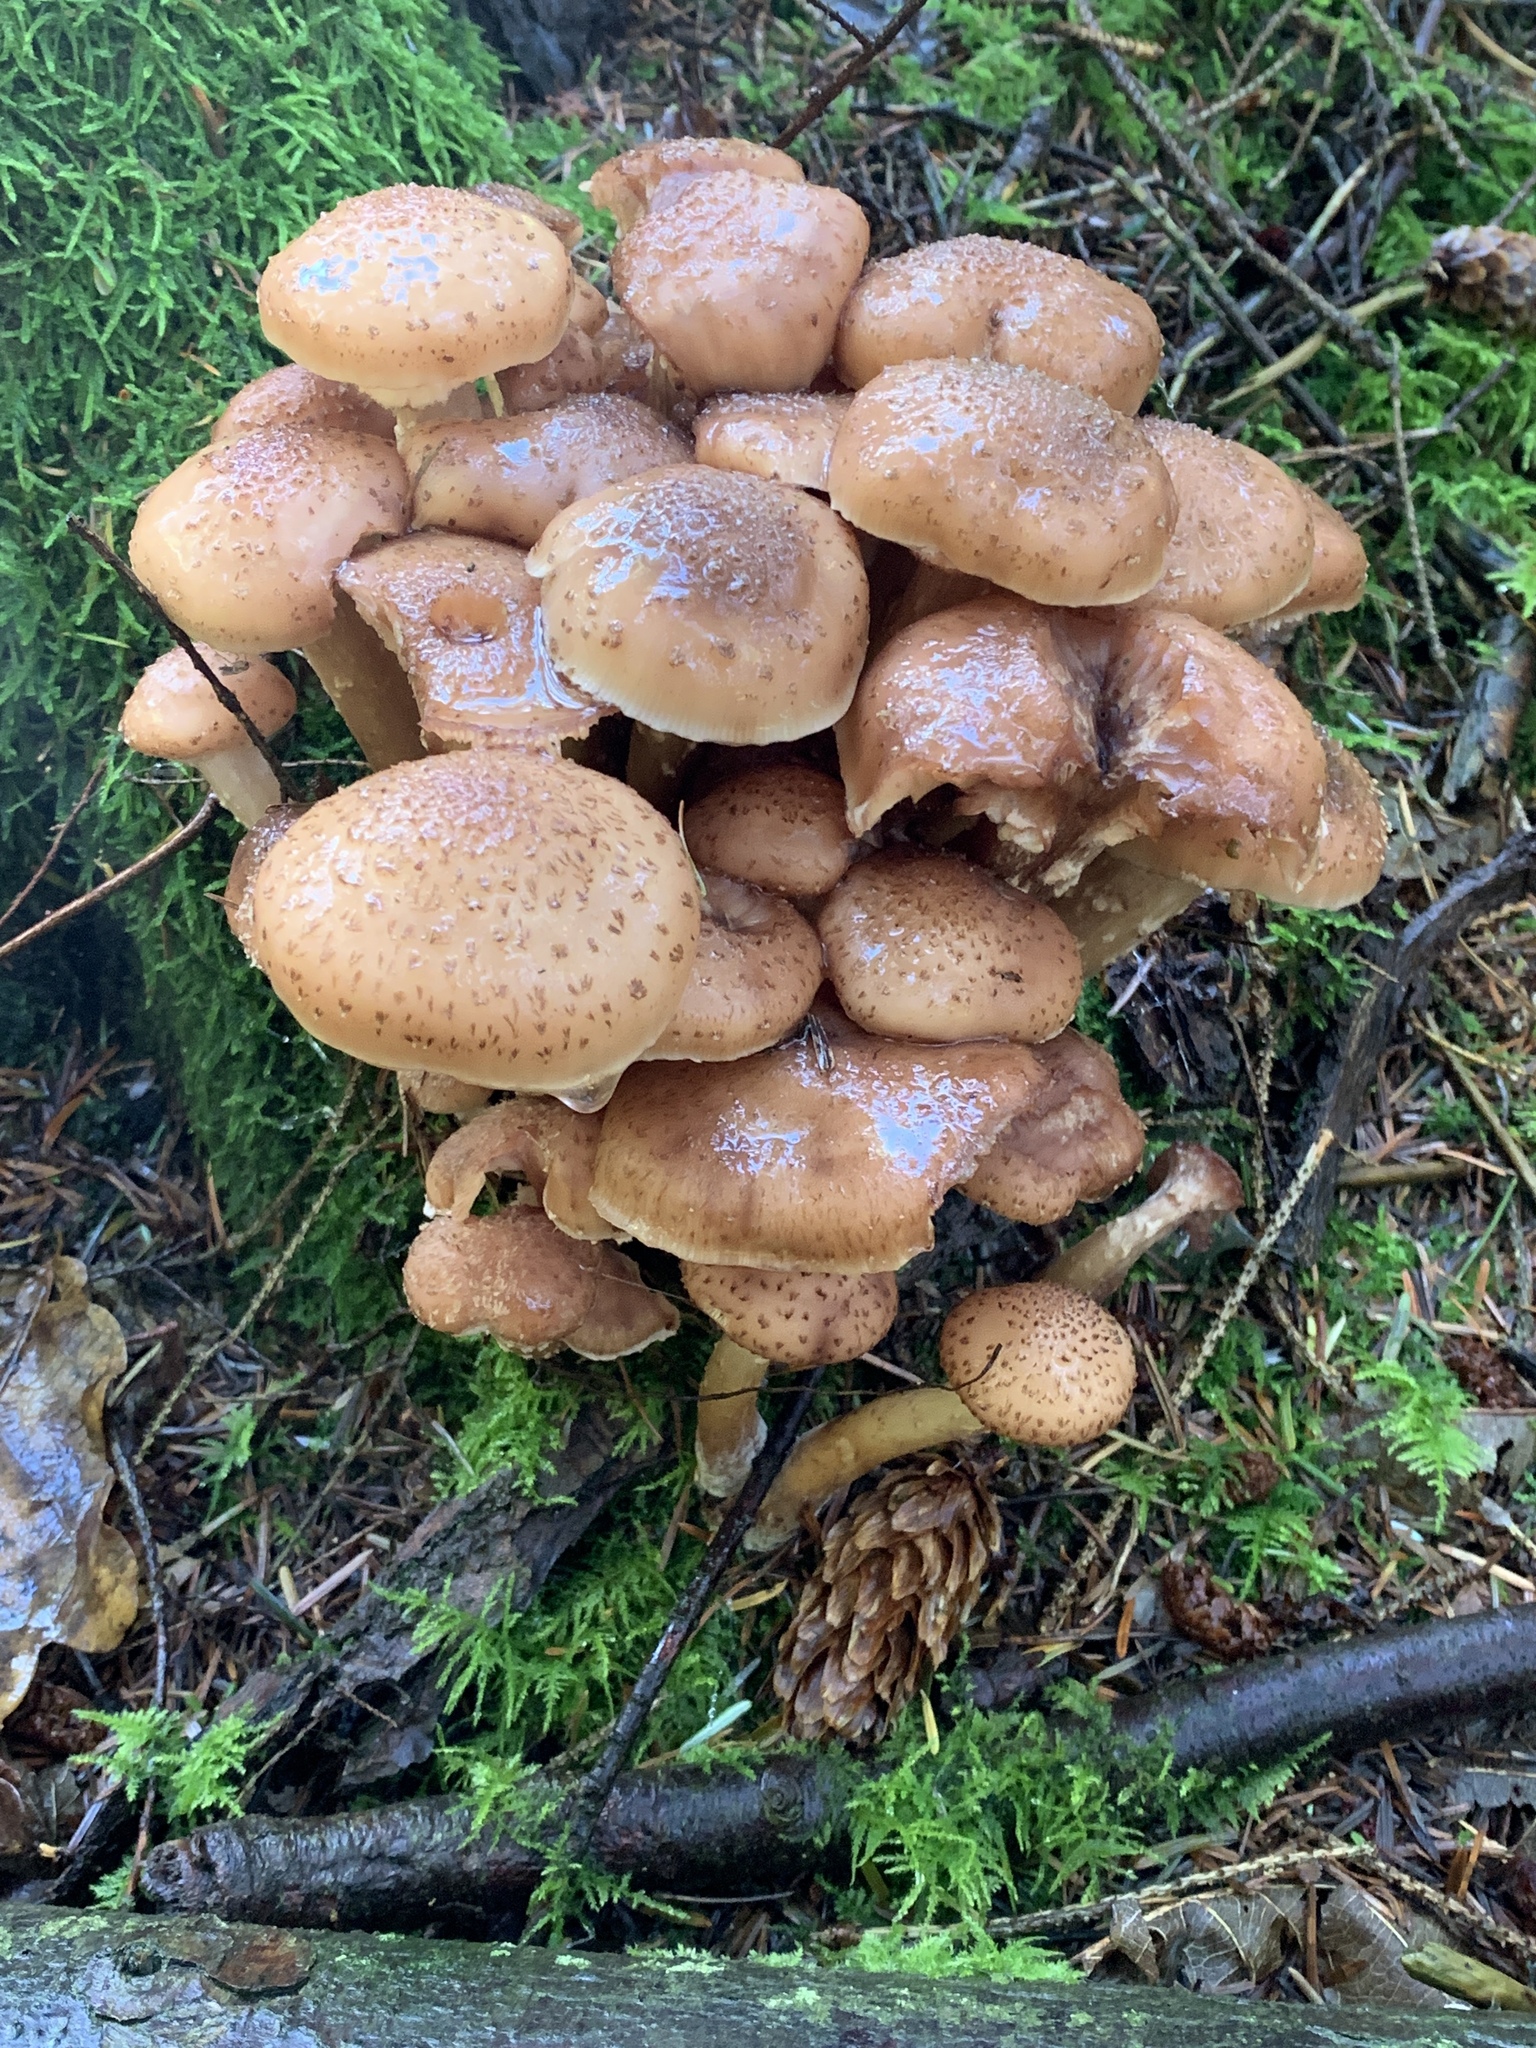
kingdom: Fungi
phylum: Basidiomycota
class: Agaricomycetes
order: Agaricales
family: Physalacriaceae
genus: Armillaria
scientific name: Armillaria mellea
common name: Honey fungus
